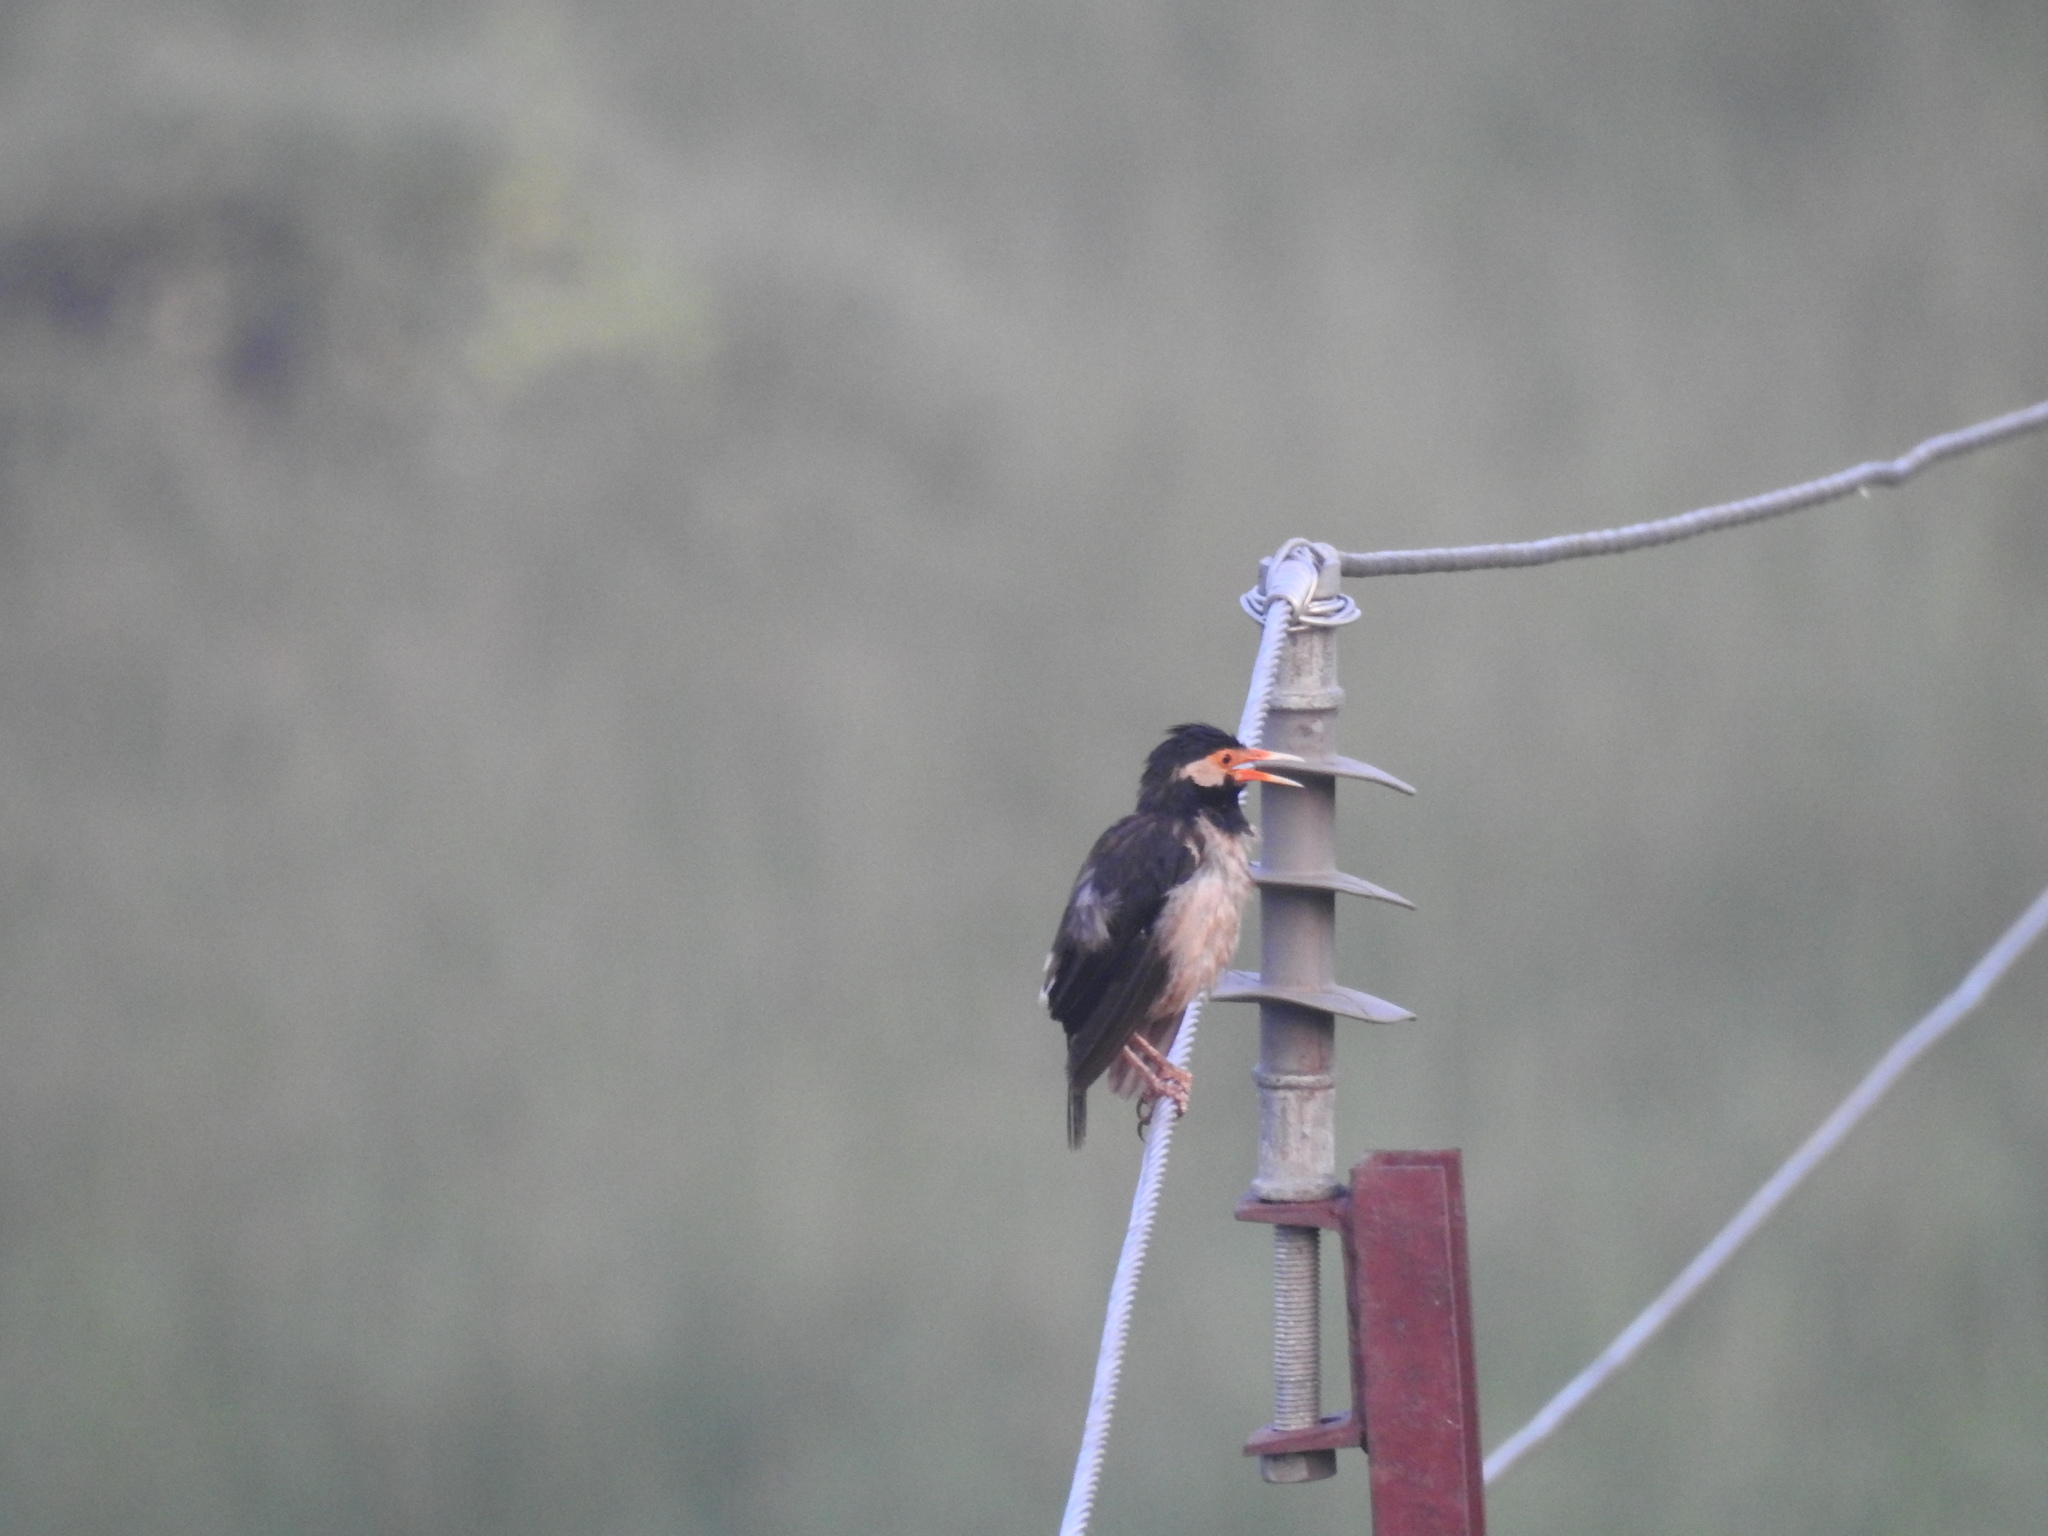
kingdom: Animalia
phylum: Chordata
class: Aves
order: Passeriformes
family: Sturnidae
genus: Gracupica
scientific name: Gracupica contra
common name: Pied myna
